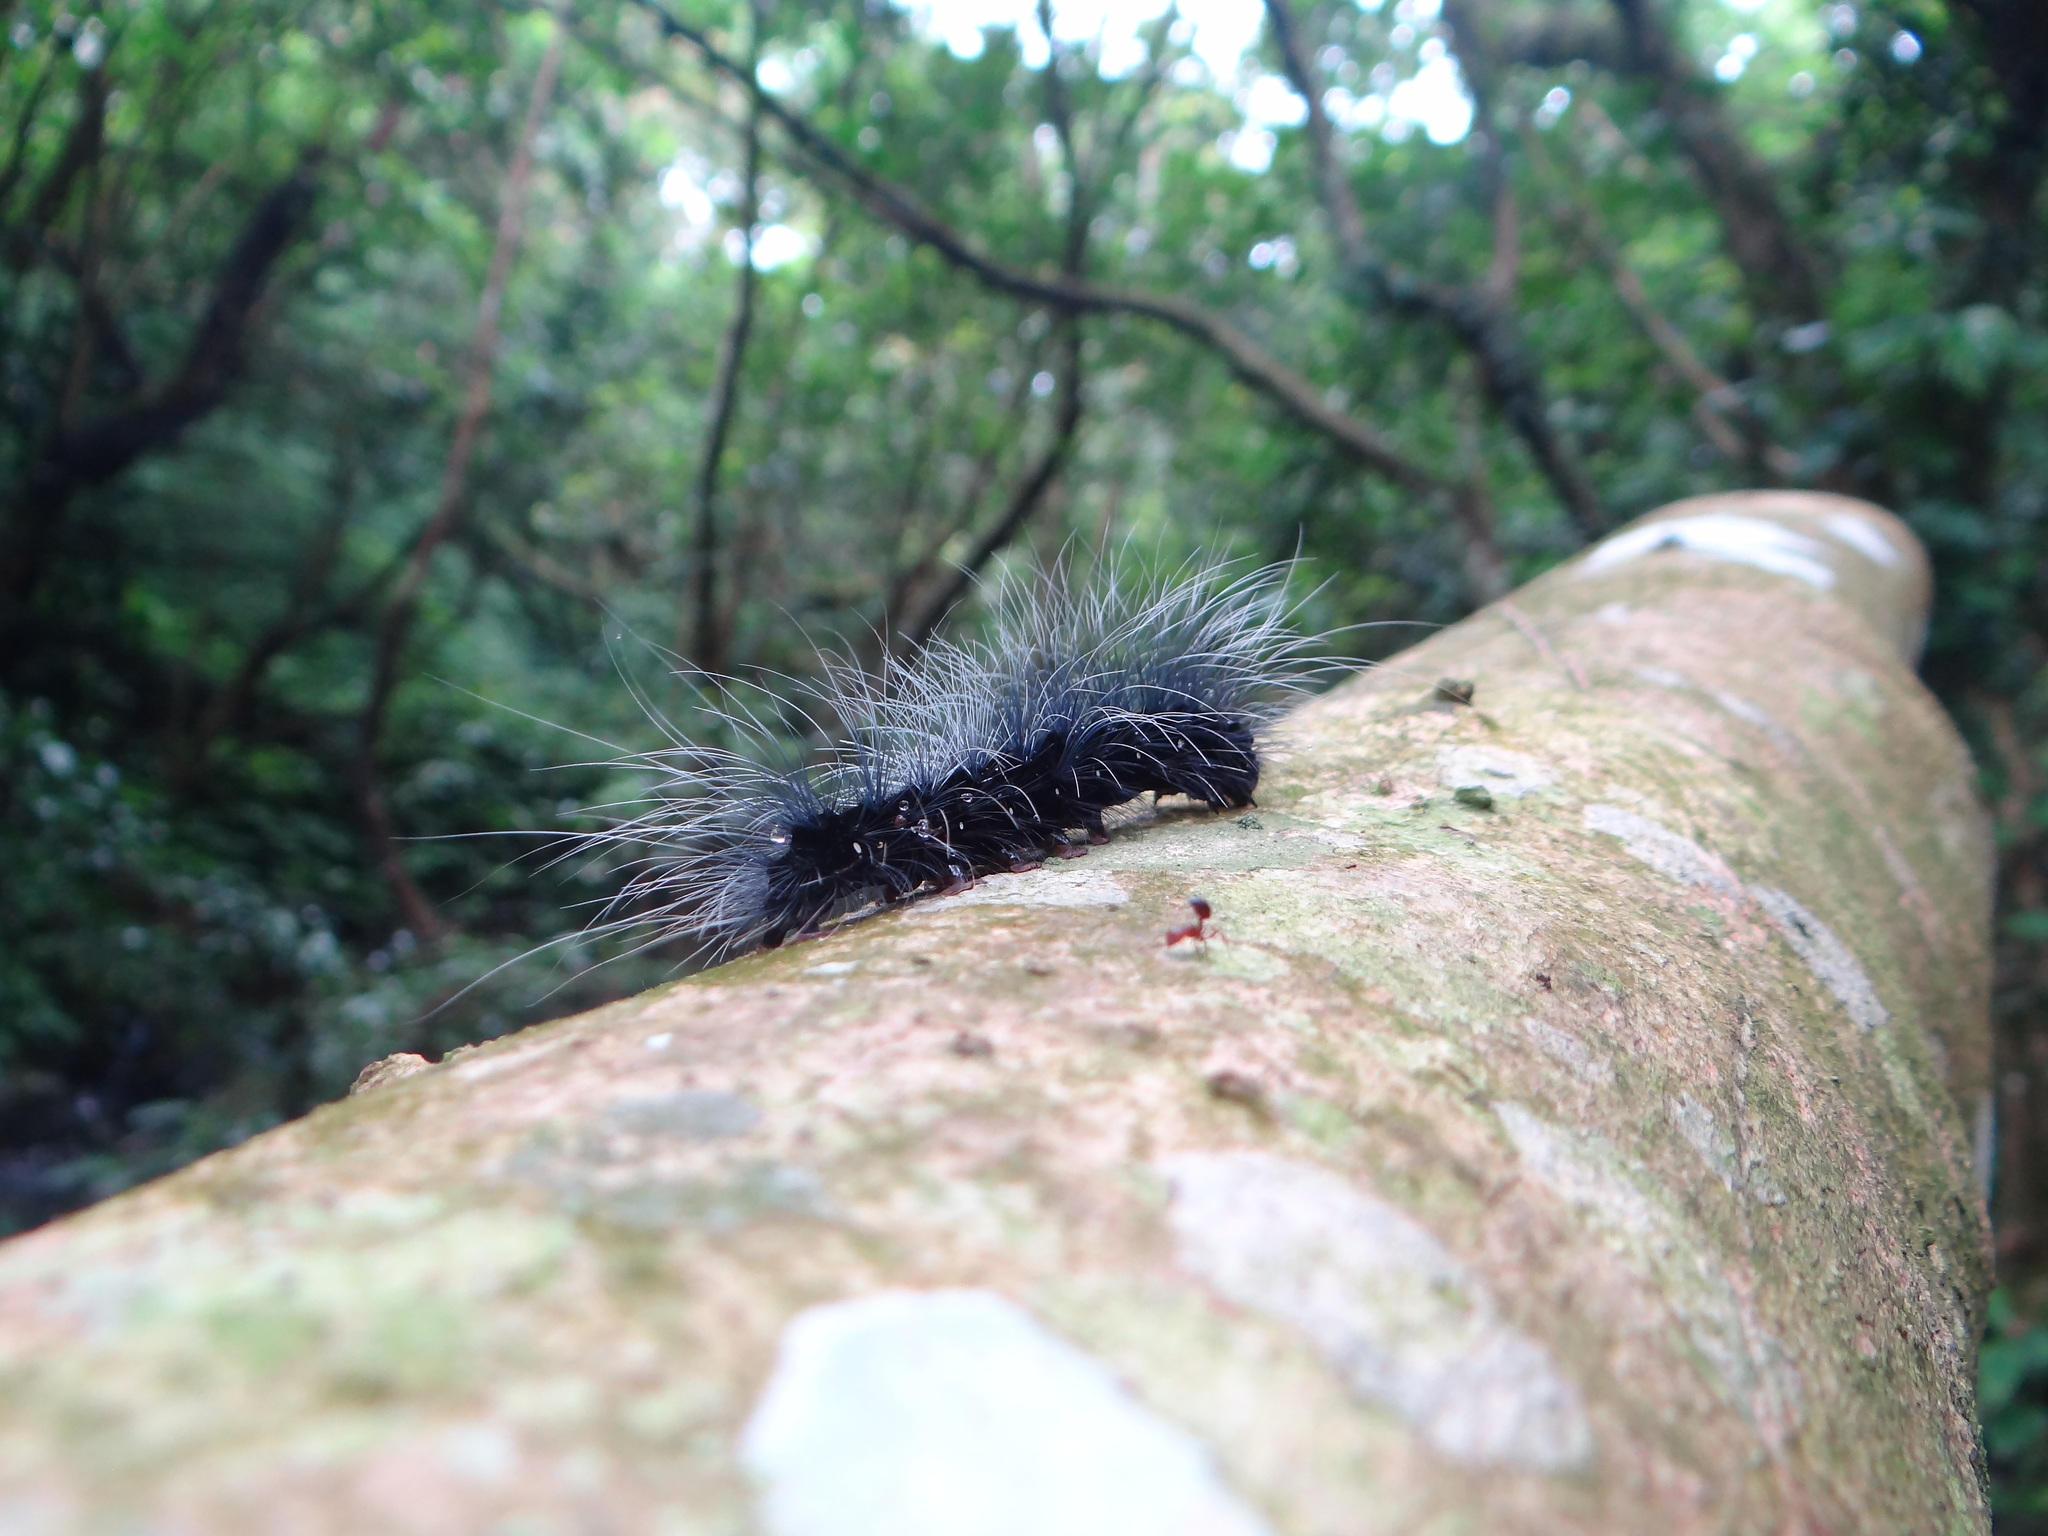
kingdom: Animalia
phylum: Arthropoda
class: Insecta
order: Lepidoptera
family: Erebidae
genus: Macrobrochis
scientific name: Macrobrochis gigas
